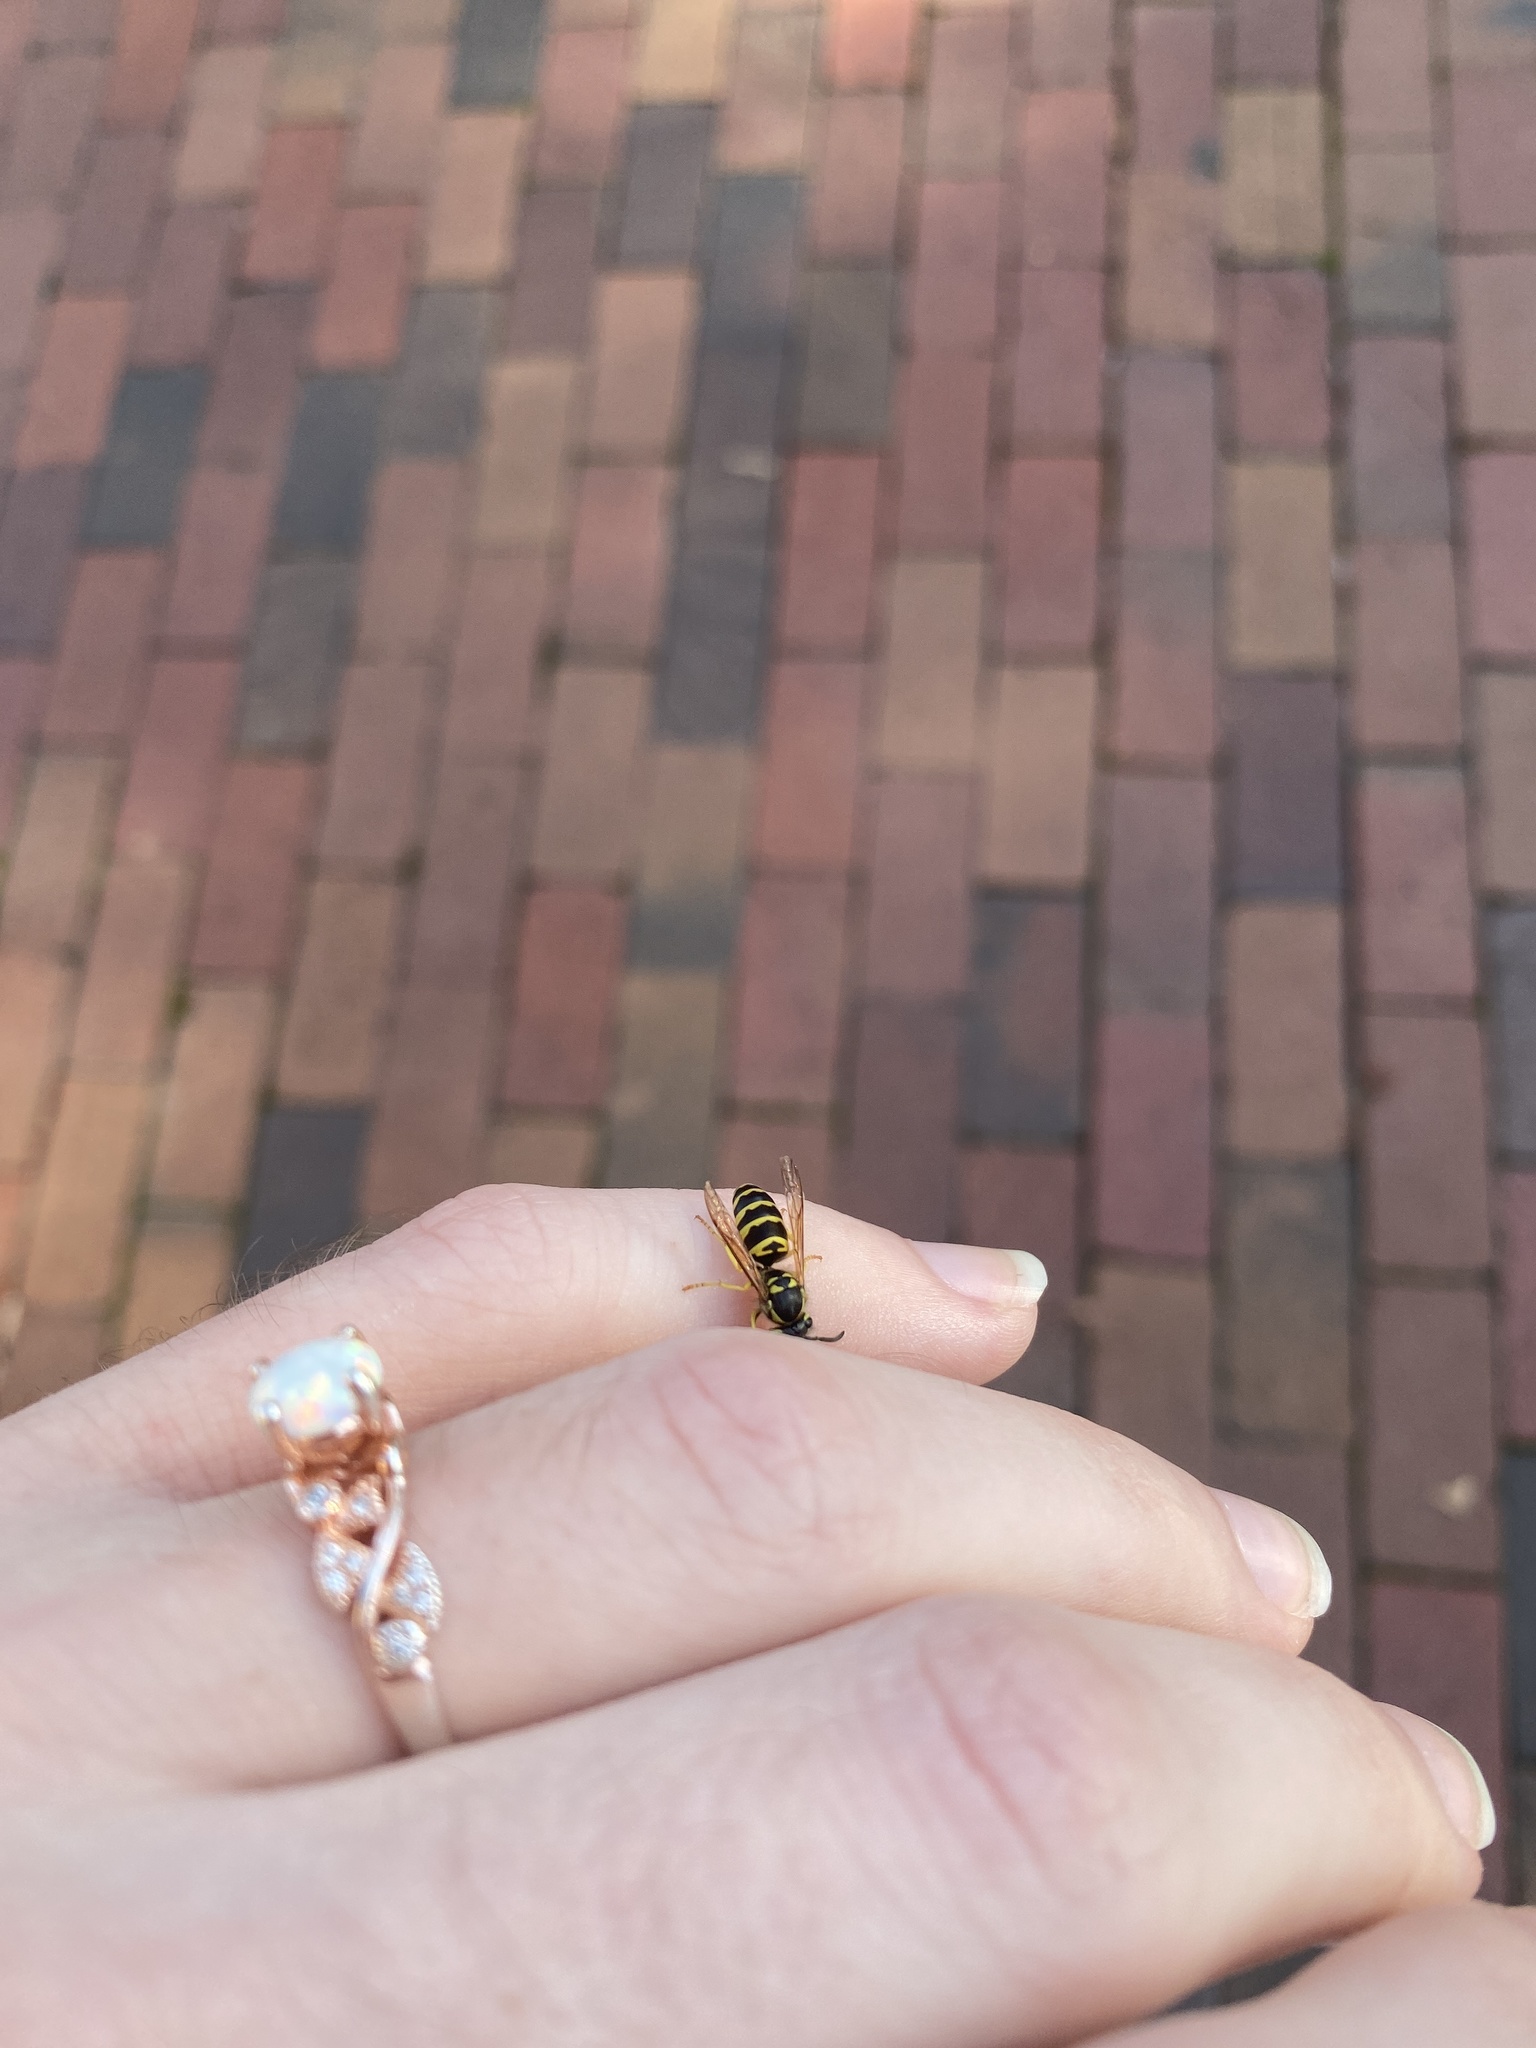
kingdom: Animalia
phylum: Arthropoda
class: Insecta
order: Hymenoptera
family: Vespidae
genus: Vespula
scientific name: Vespula maculifrons
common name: Eastern yellowjacket
